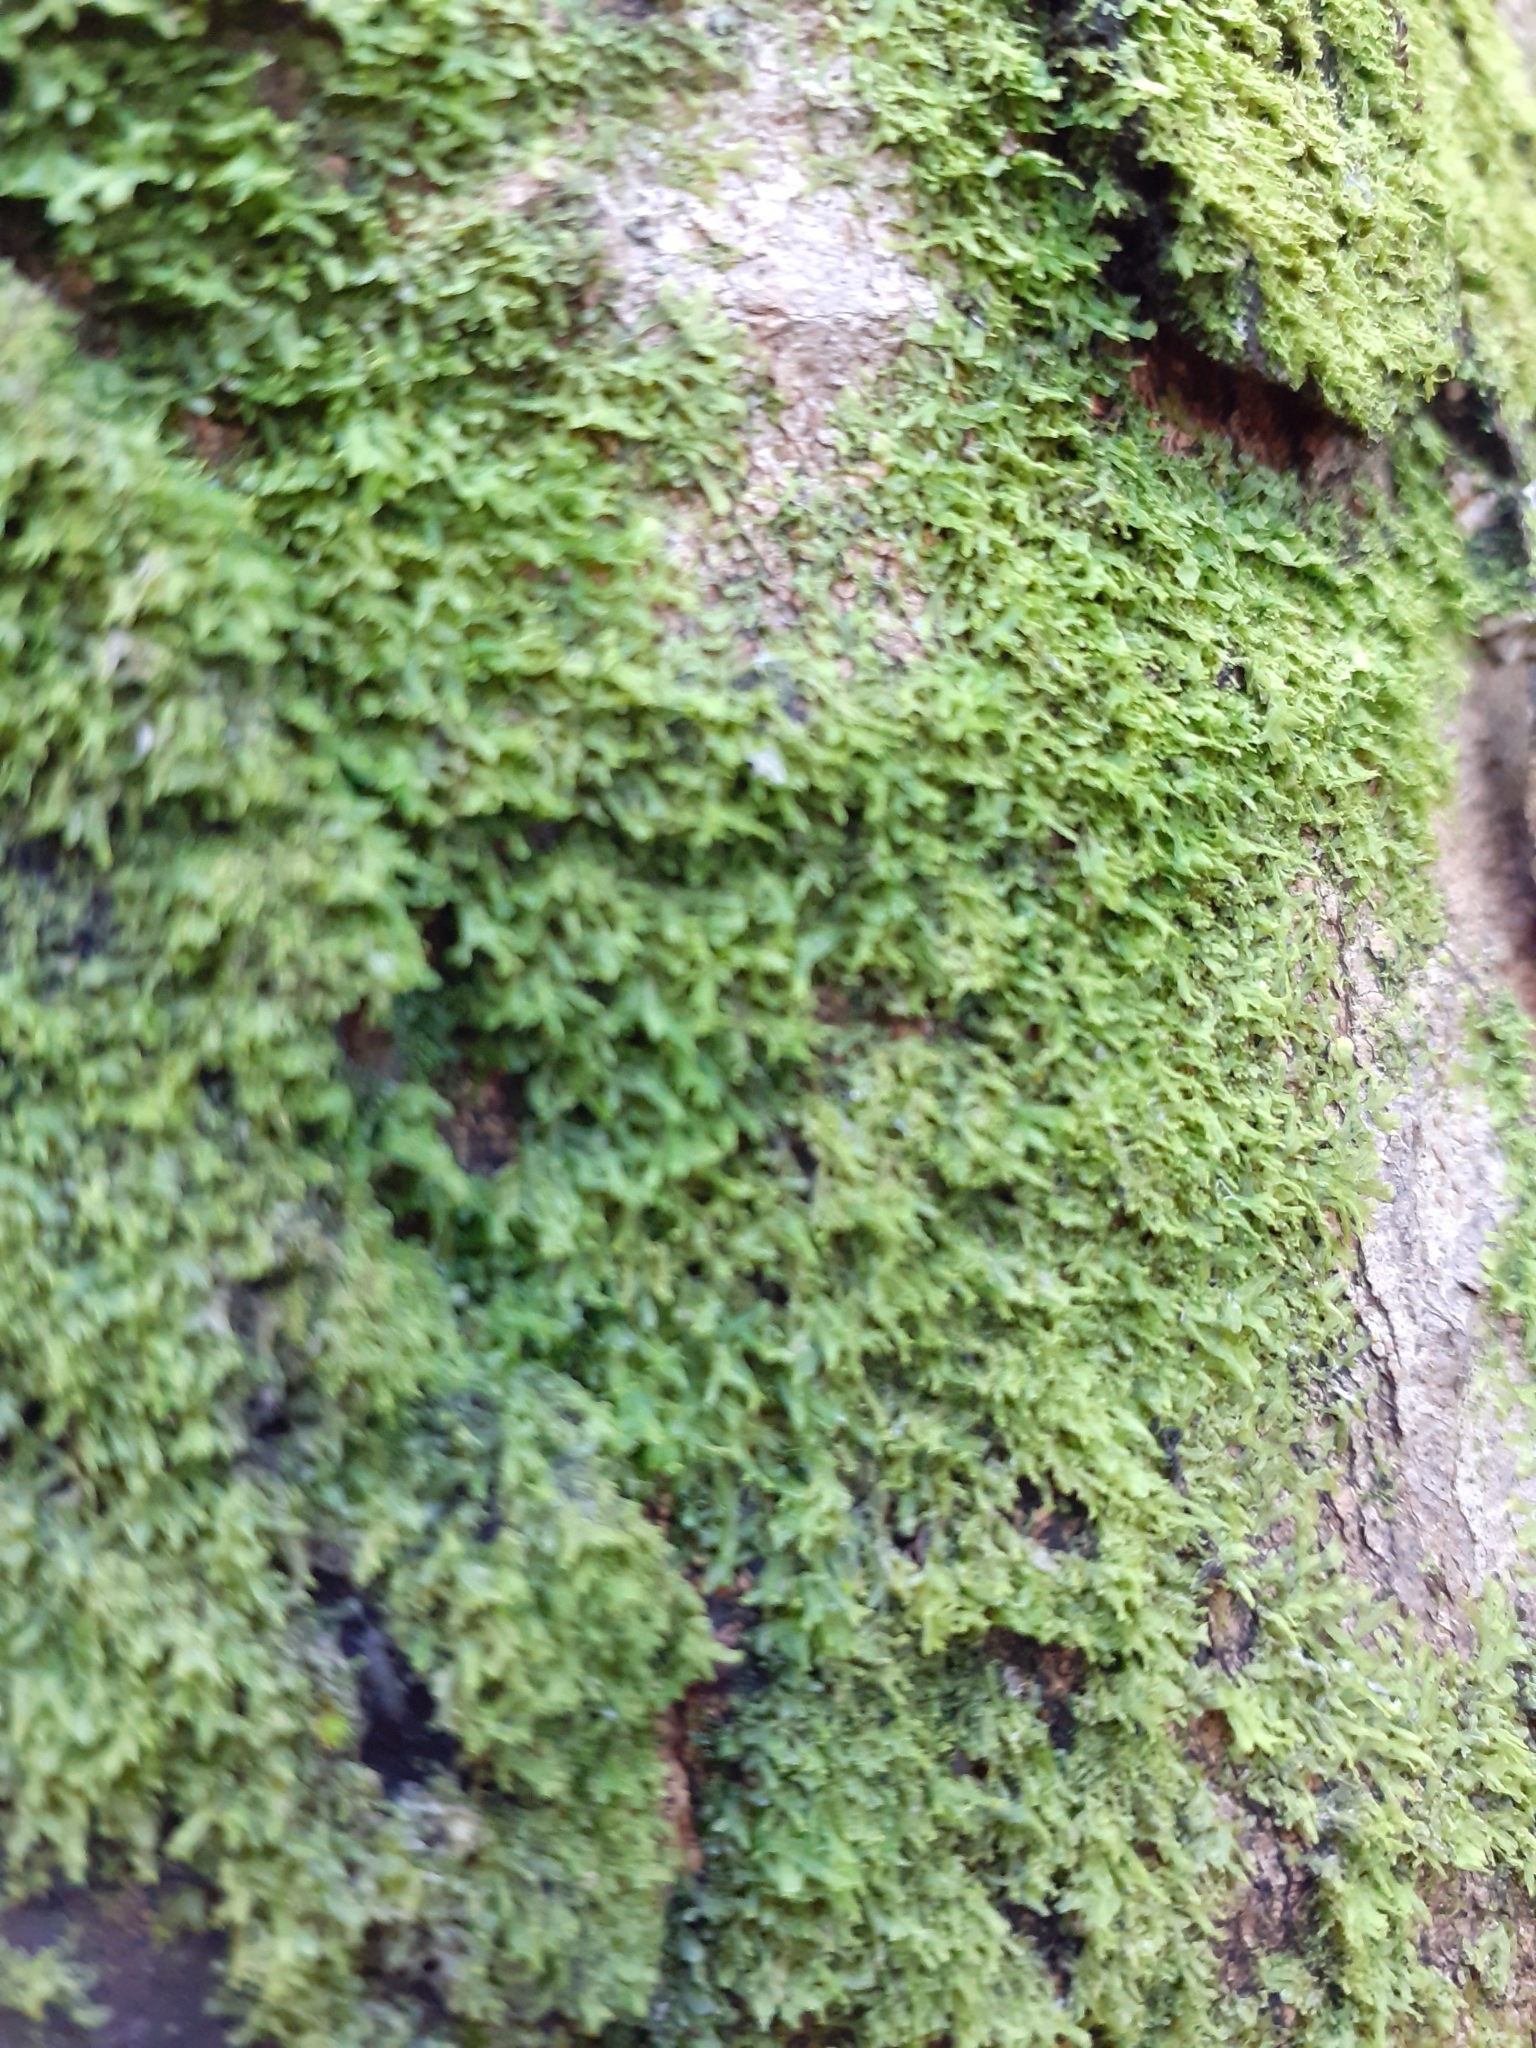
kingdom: Plantae
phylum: Marchantiophyta
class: Jungermanniopsida
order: Metzgeriales
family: Metzgeriaceae
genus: Metzgeria
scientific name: Metzgeria furcata
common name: Forked veilwort
